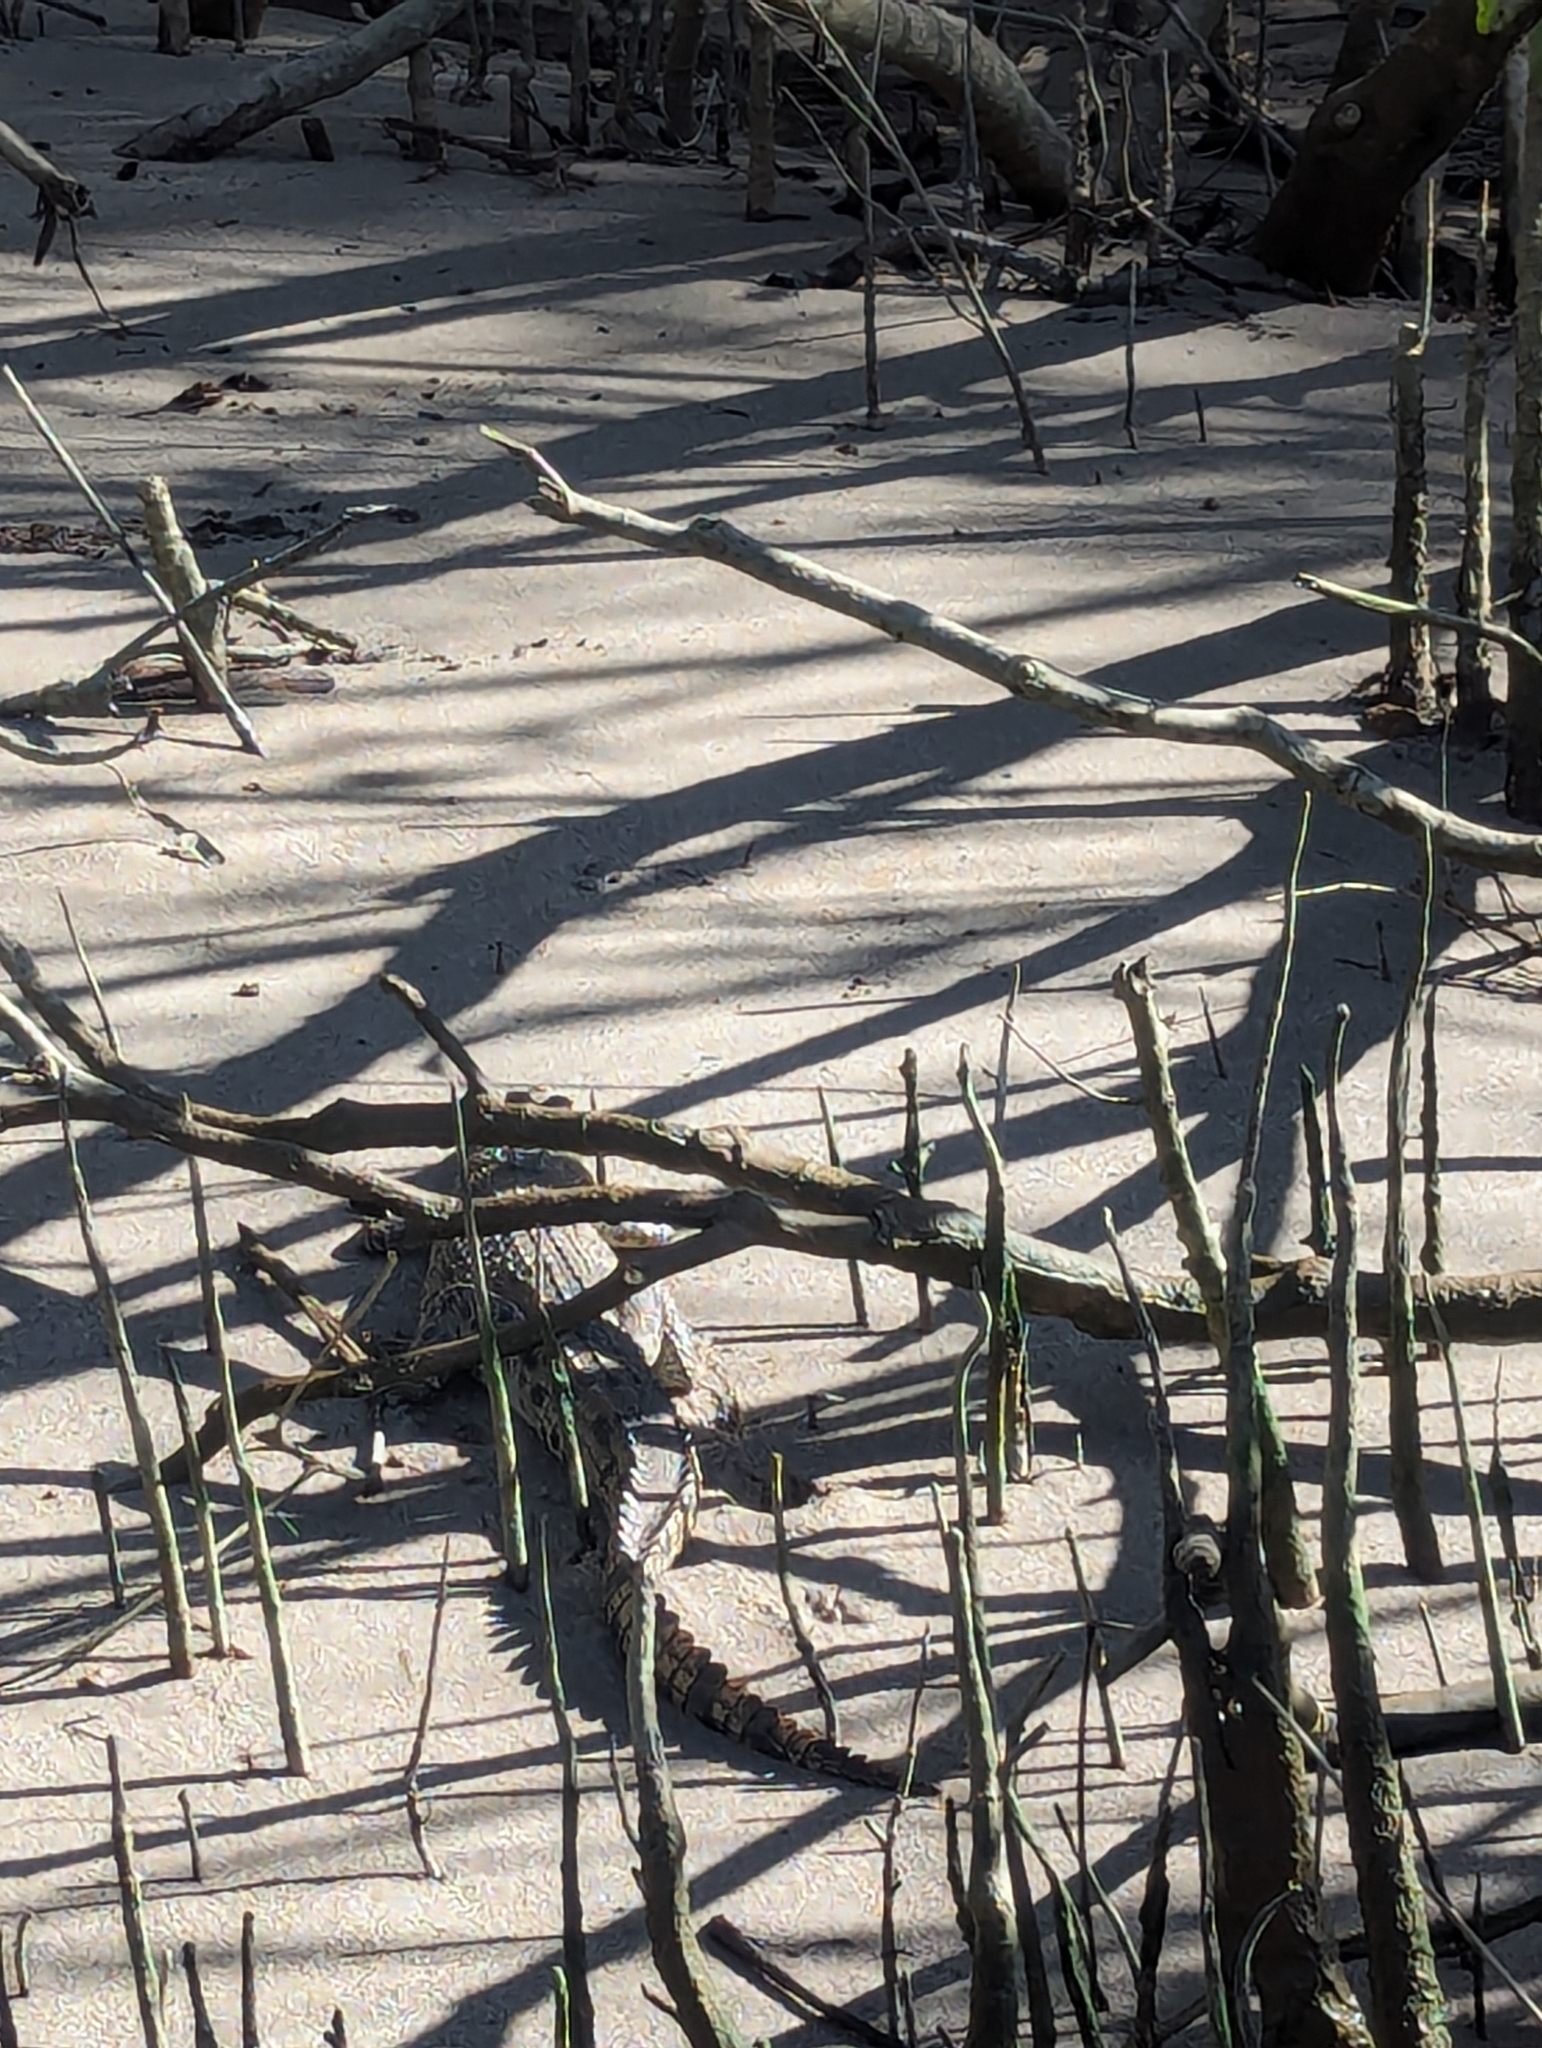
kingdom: Animalia
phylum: Chordata
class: Crocodylia
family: Crocodylidae
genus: Crocodylus
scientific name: Crocodylus porosus
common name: Saltwater crocodile
